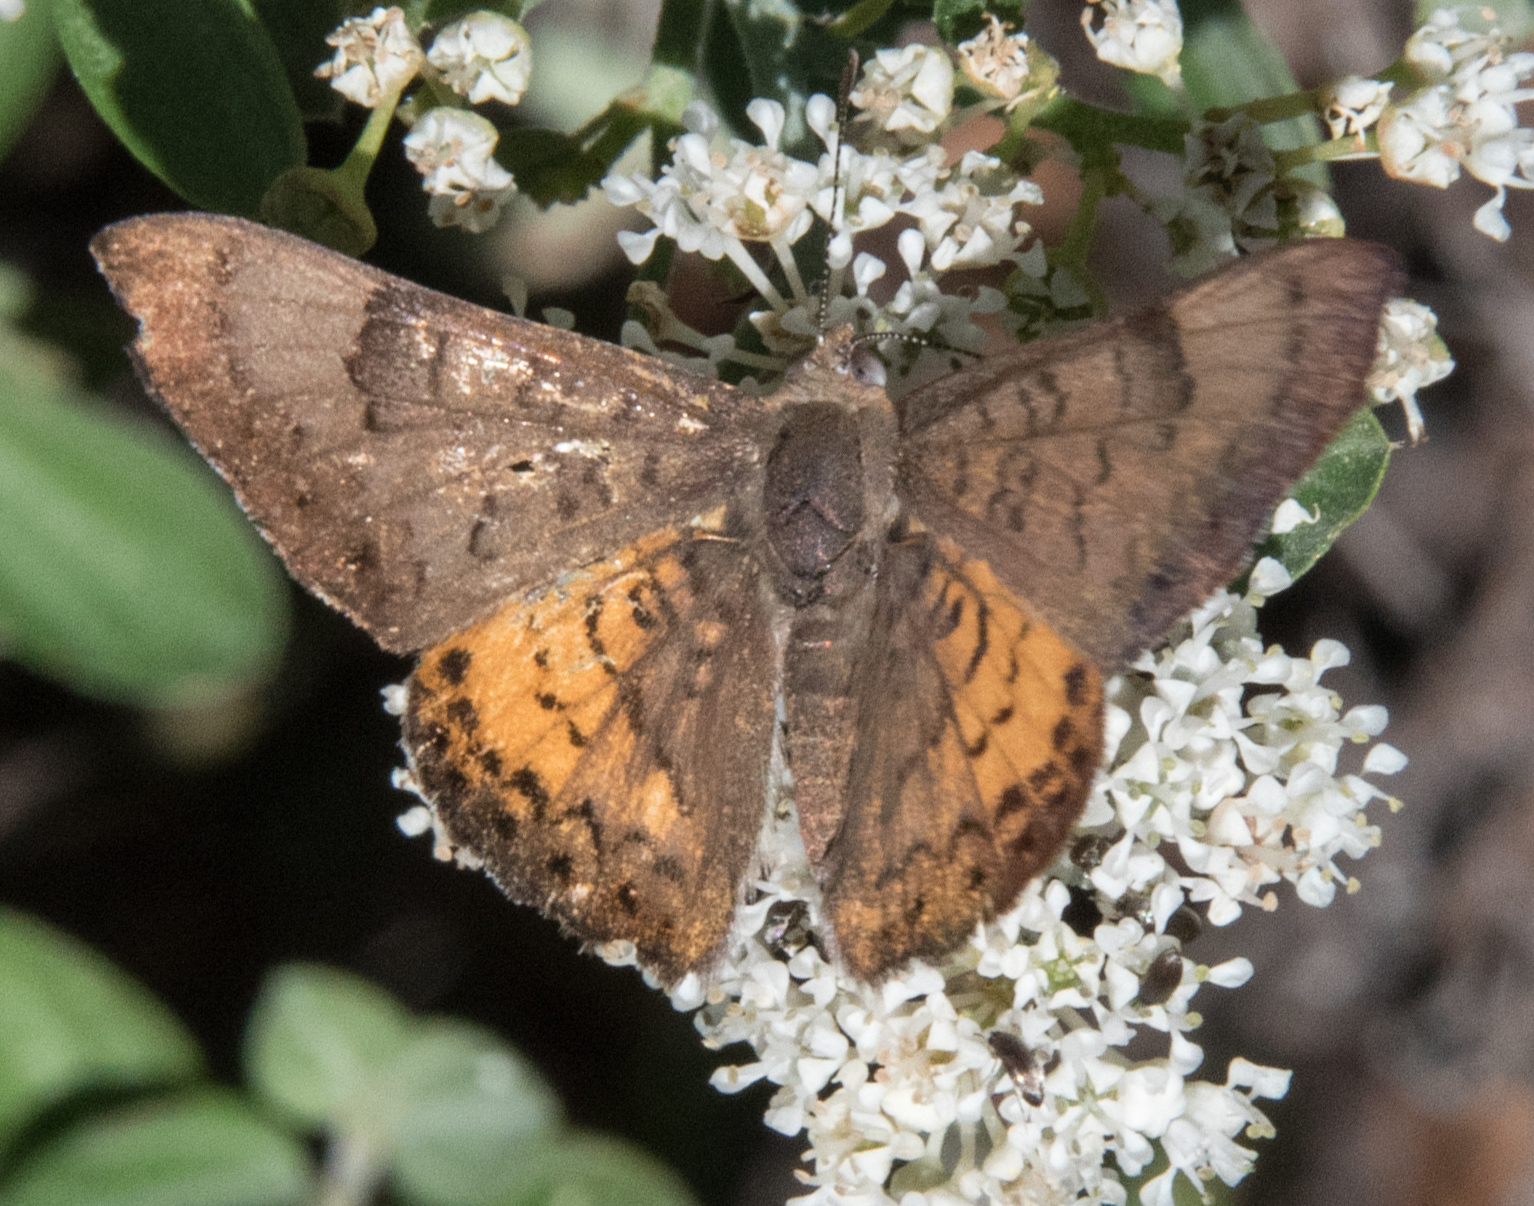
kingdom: Animalia
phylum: Arthropoda
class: Insecta
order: Lepidoptera
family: Riodinidae
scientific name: Riodinidae
